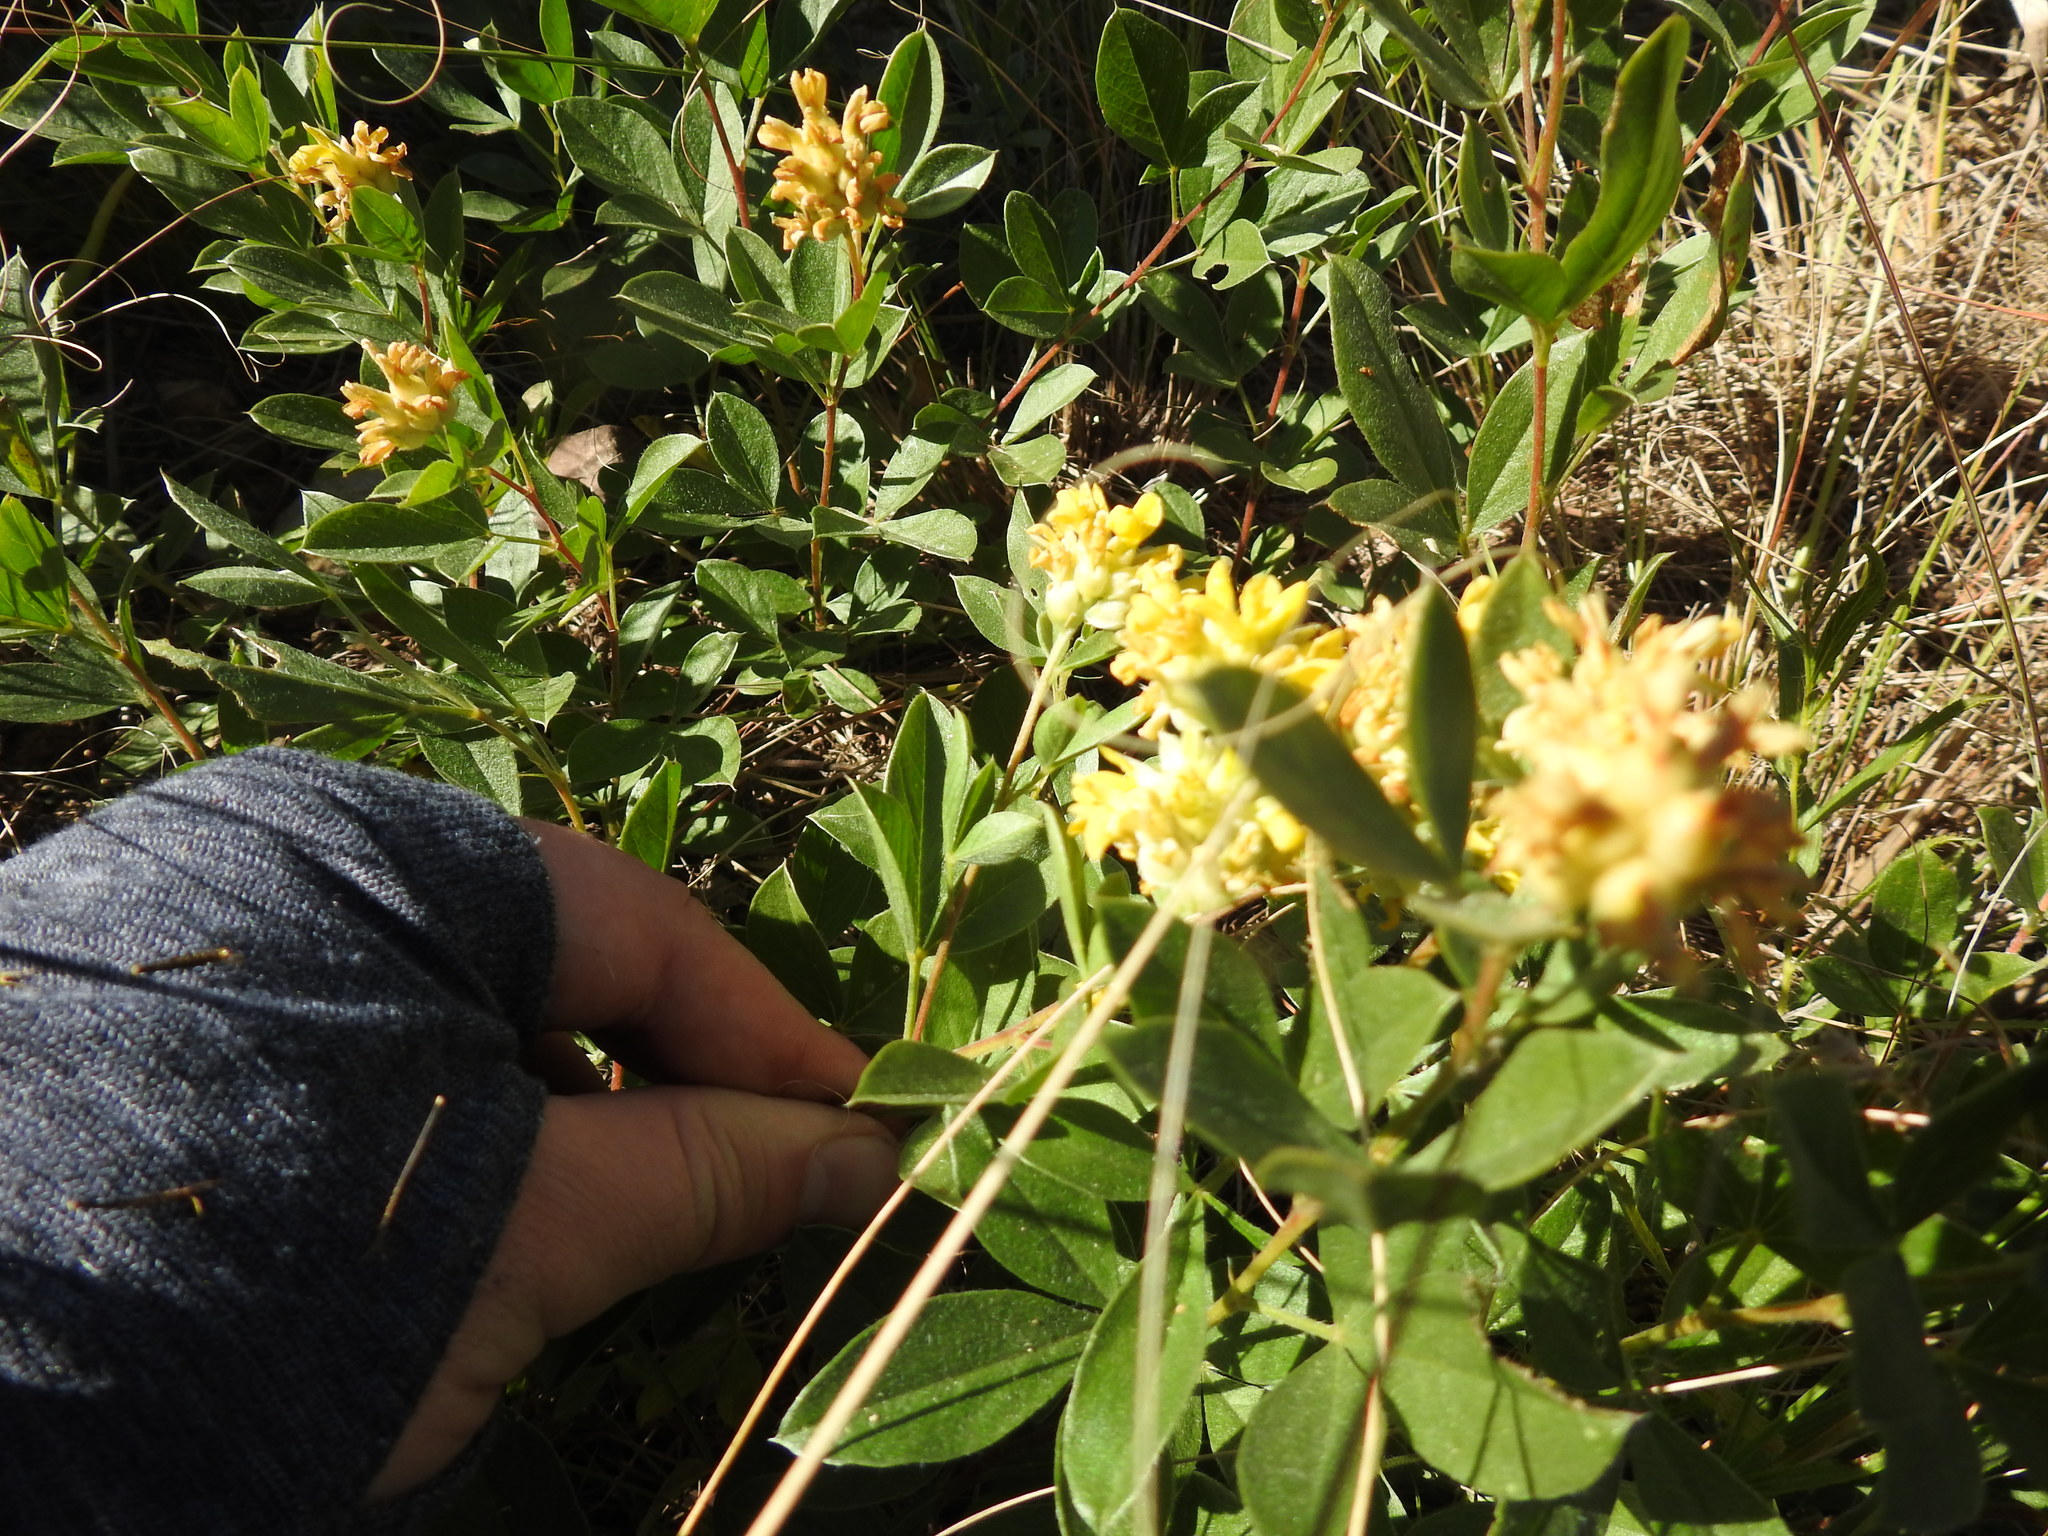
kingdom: Plantae
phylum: Tracheophyta
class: Magnoliopsida
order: Fabales
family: Fabaceae
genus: Pearsonia
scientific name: Pearsonia cajanifolia
